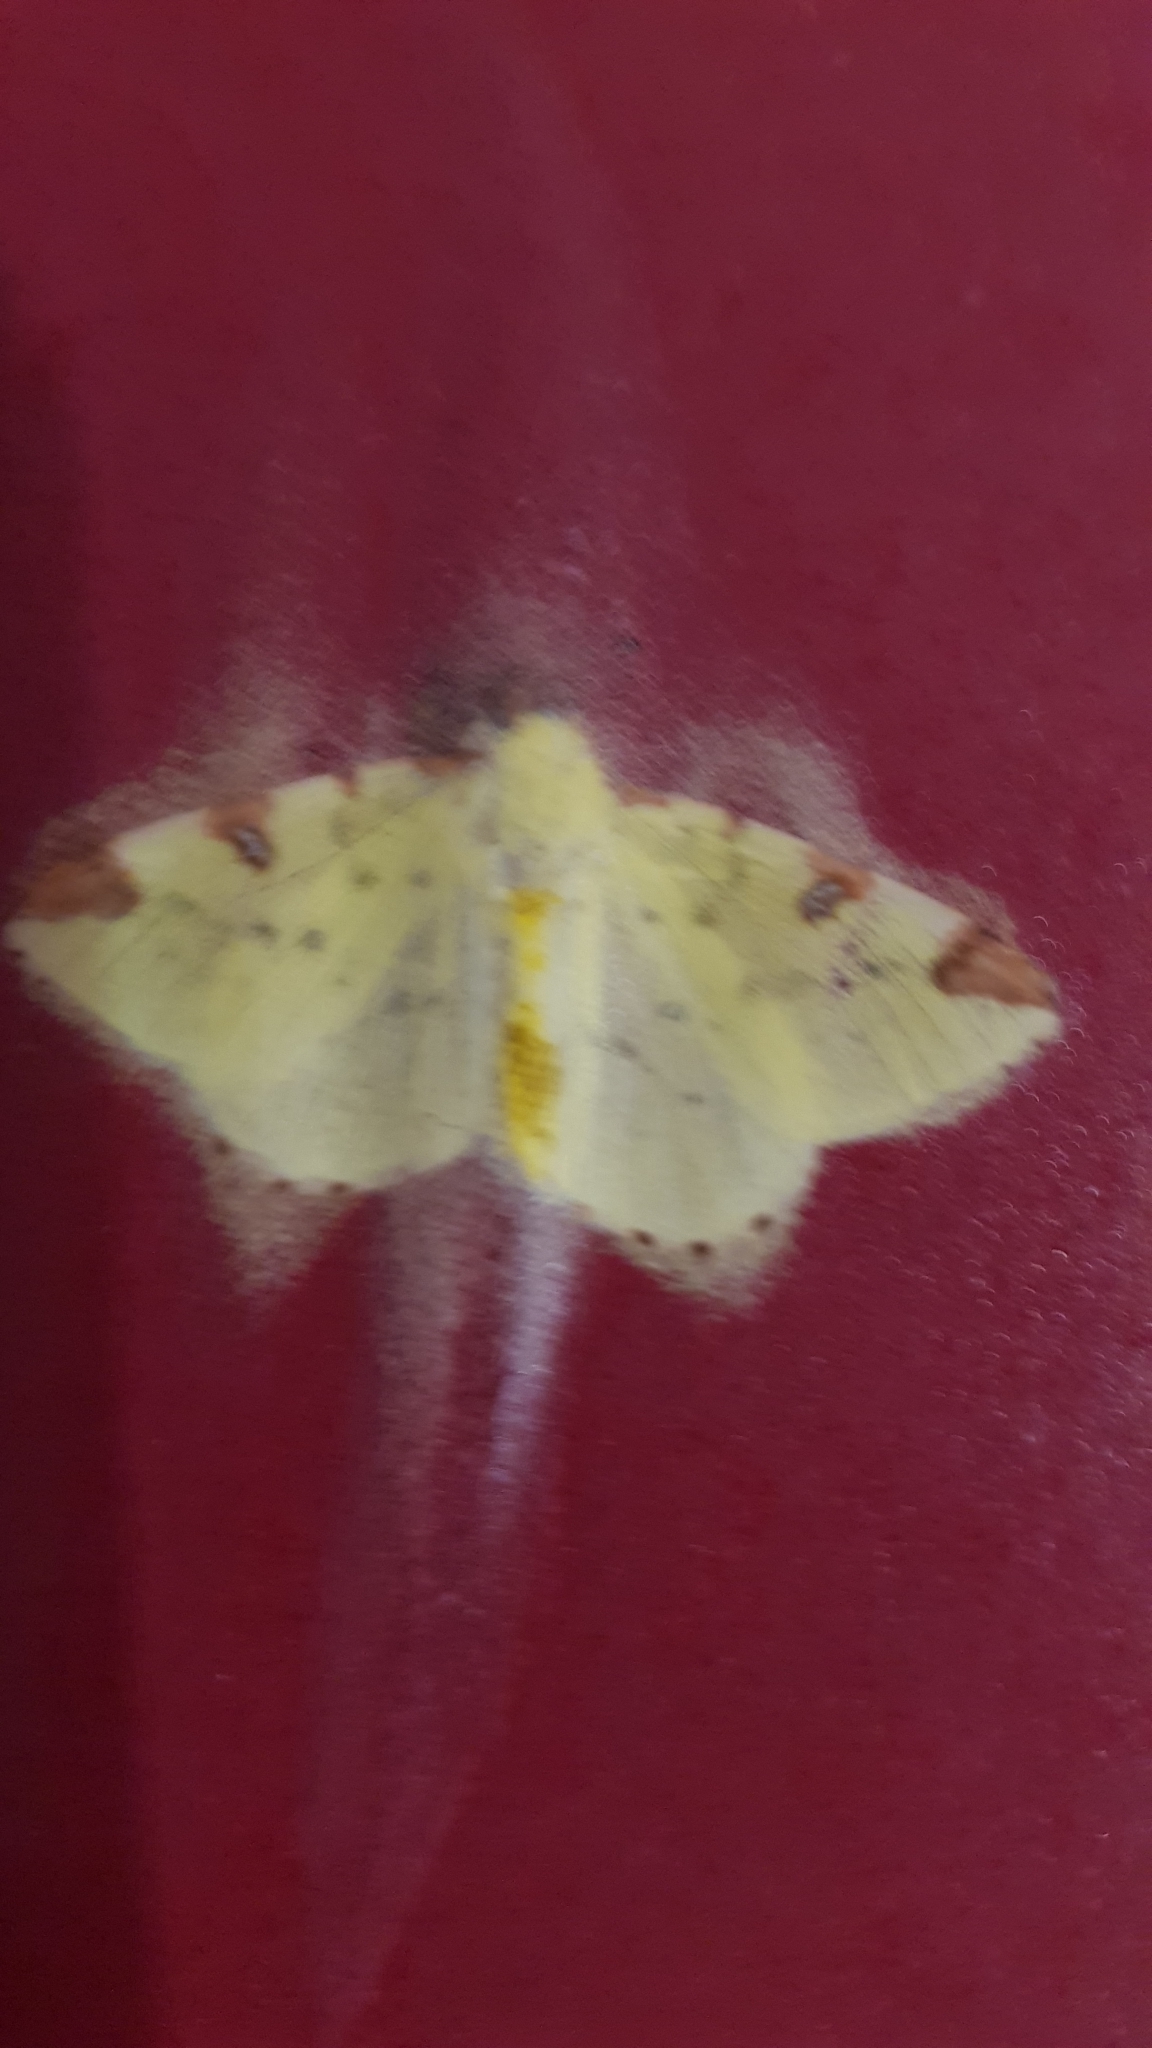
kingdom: Animalia
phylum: Arthropoda
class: Insecta
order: Lepidoptera
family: Geometridae
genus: Opisthograptis
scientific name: Opisthograptis luteolata
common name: Brimstone moth
